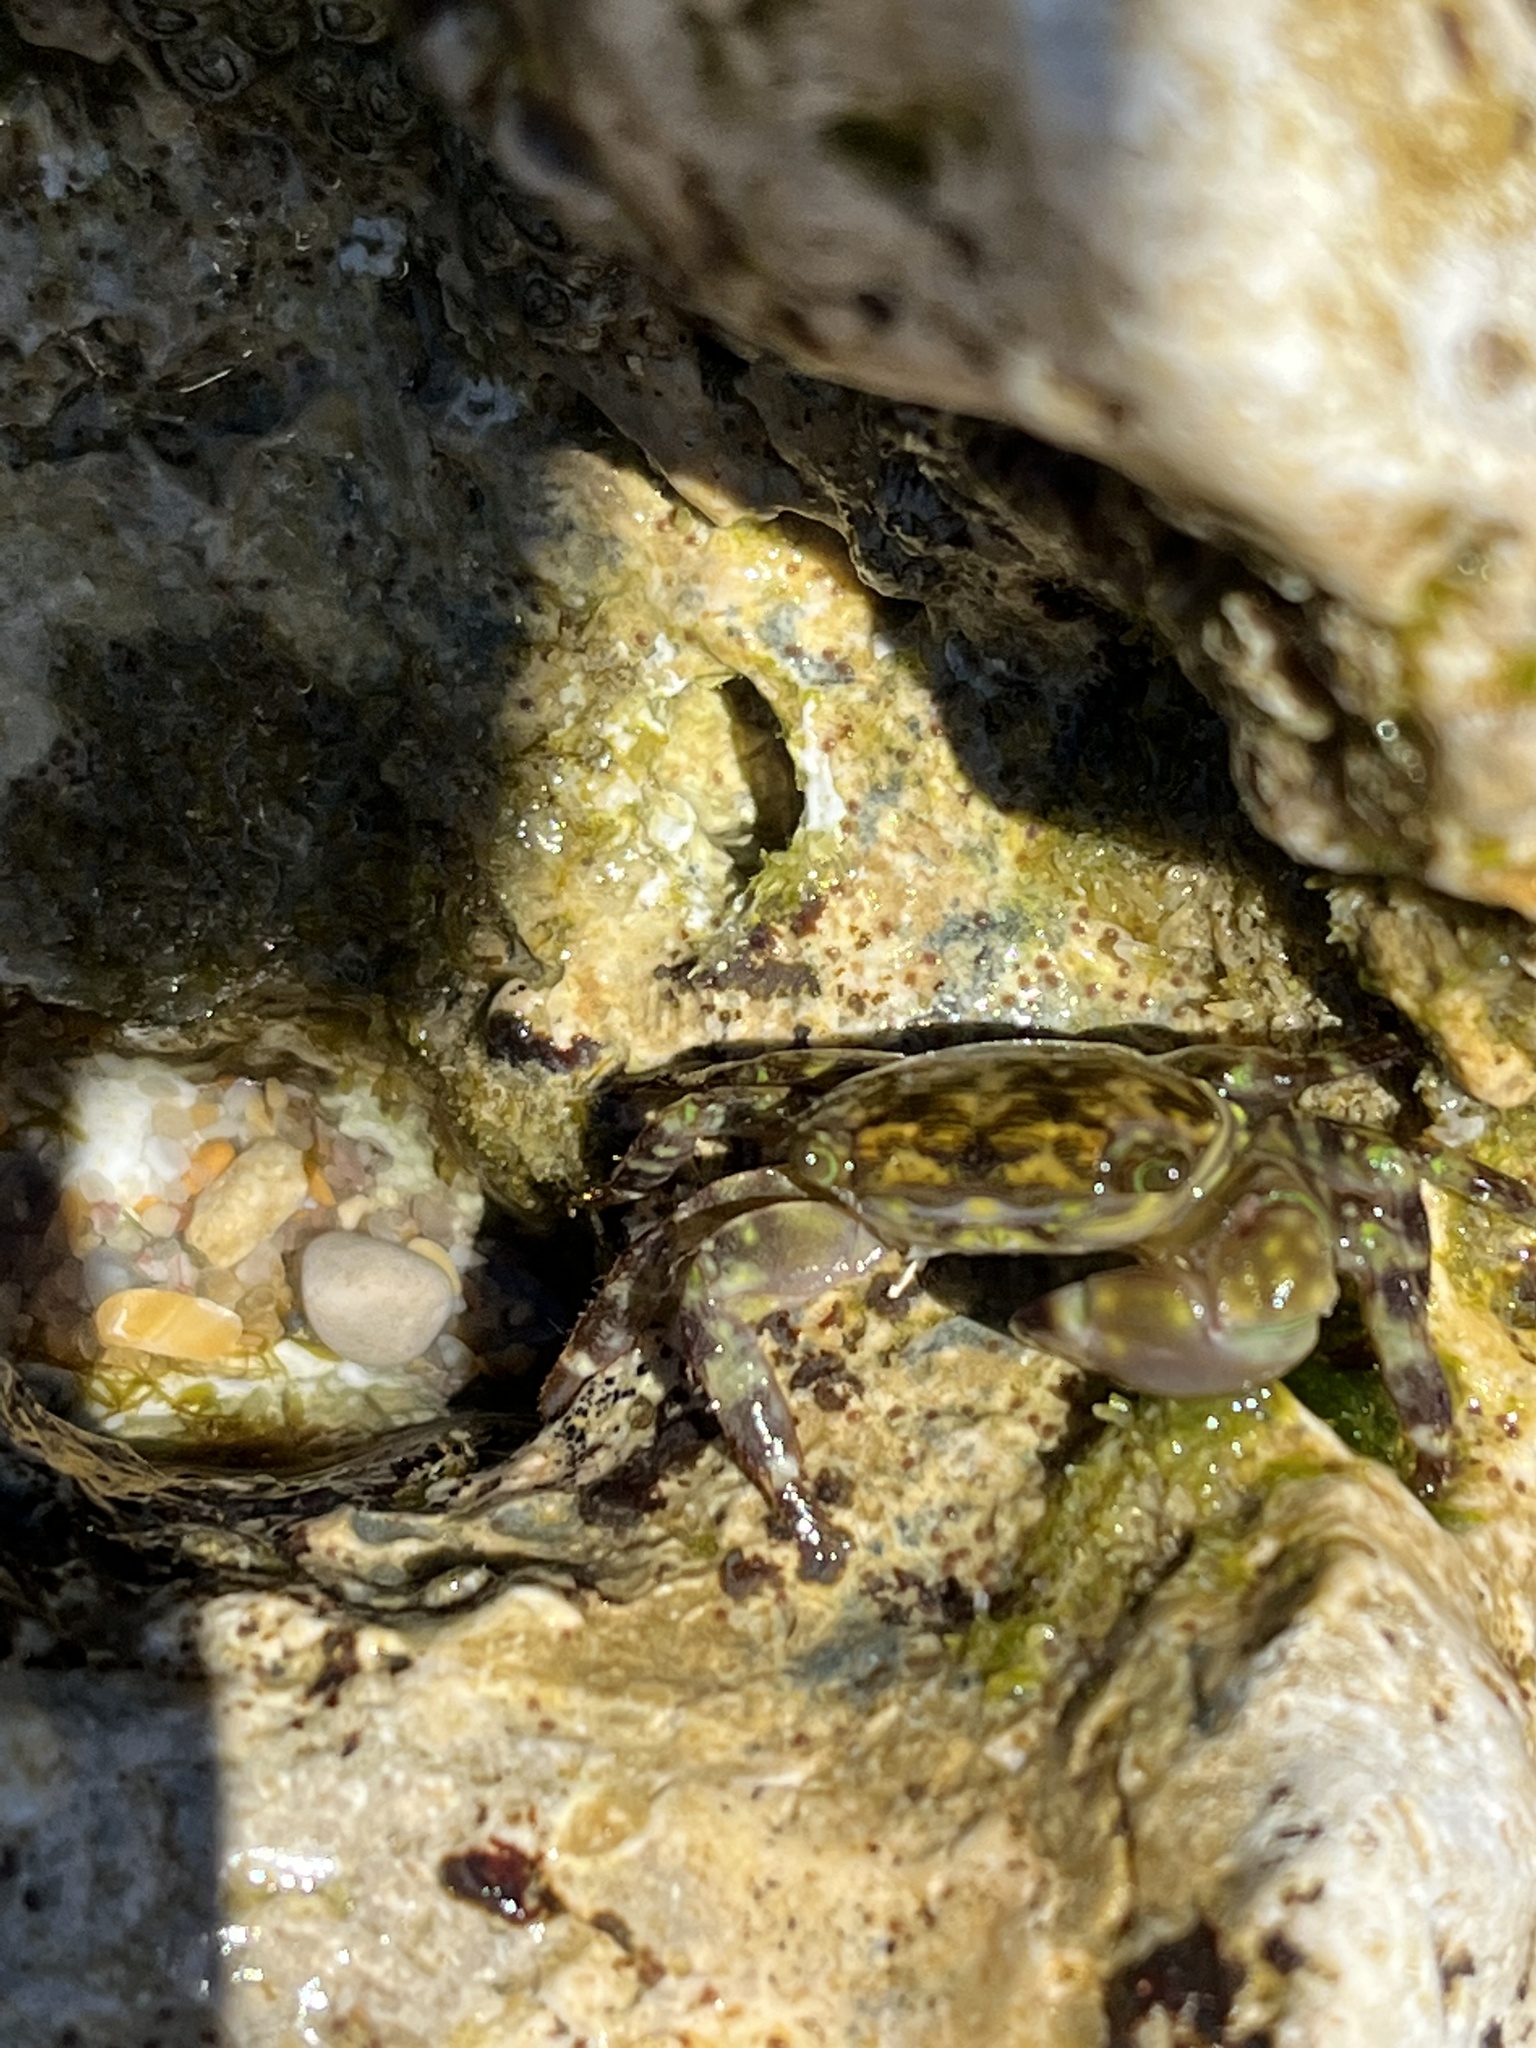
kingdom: Animalia
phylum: Arthropoda
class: Malacostraca
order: Decapoda
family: Grapsidae
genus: Pachygrapsus
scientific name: Pachygrapsus transversus
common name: Mottled shore crab
